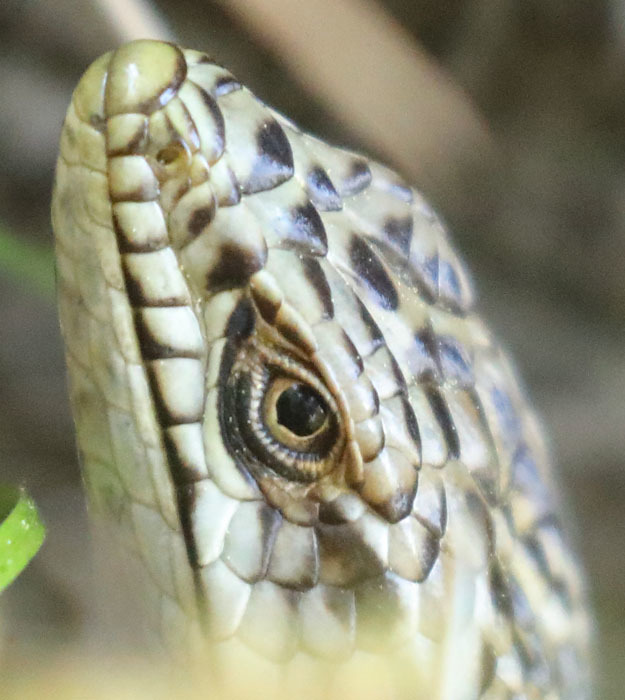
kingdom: Animalia
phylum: Chordata
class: Squamata
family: Anguidae
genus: Elgaria
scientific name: Elgaria multicarinata
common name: Southern alligator lizard
